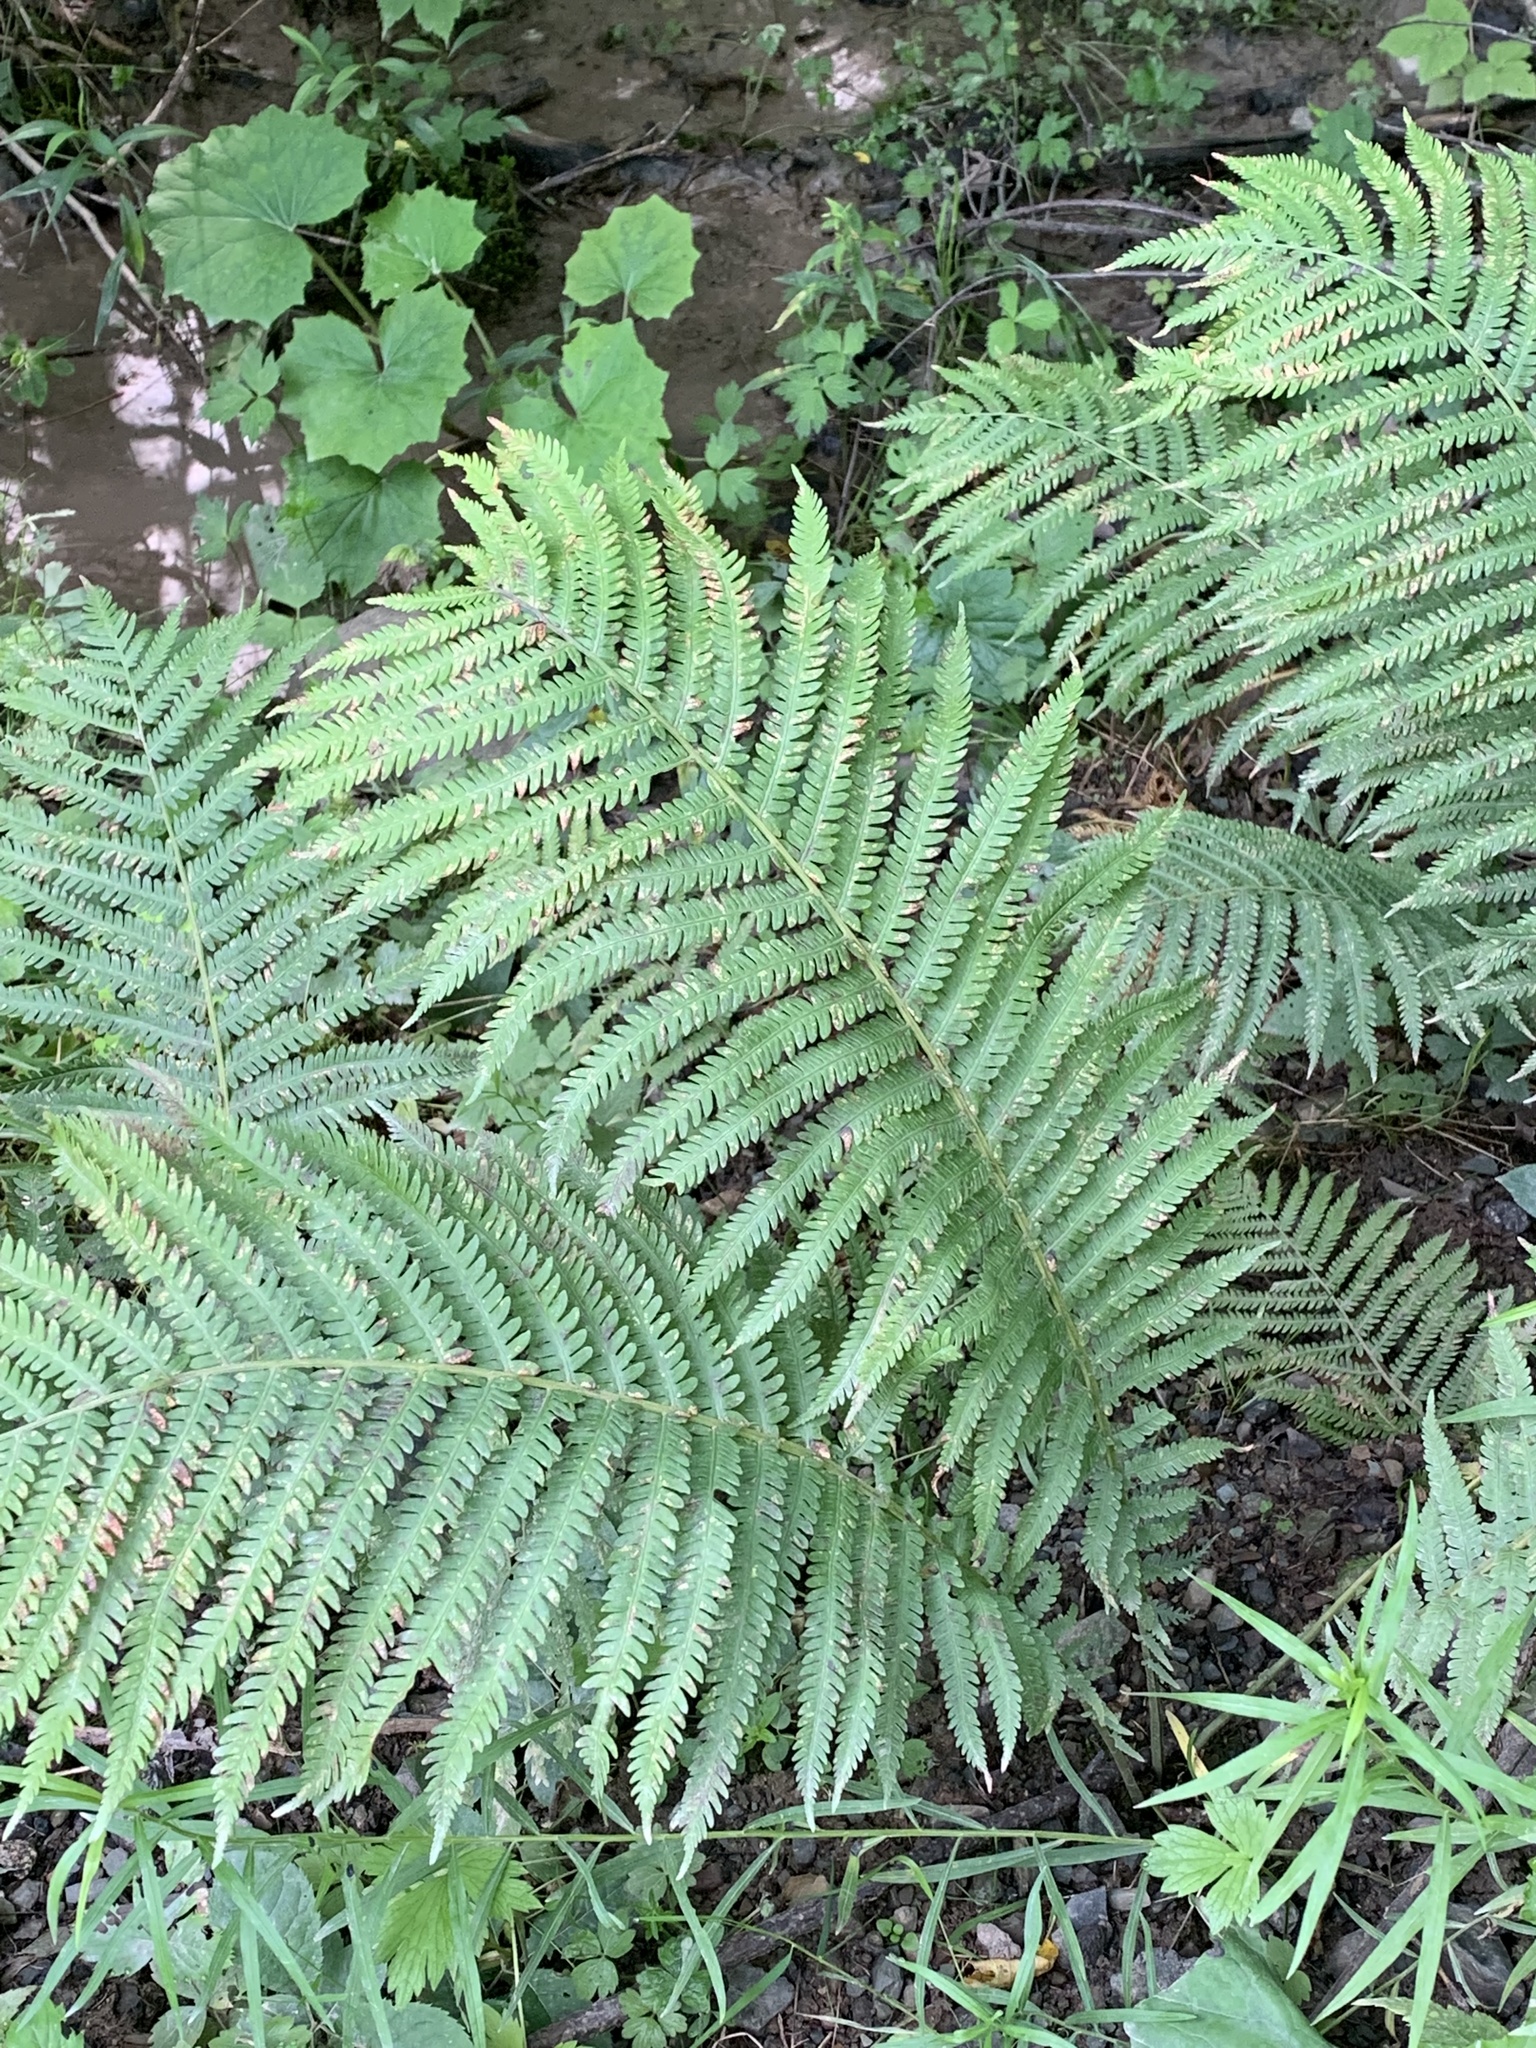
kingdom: Plantae
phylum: Tracheophyta
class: Polypodiopsida
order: Polypodiales
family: Onocleaceae
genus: Matteuccia
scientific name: Matteuccia struthiopteris
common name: Ostrich fern
